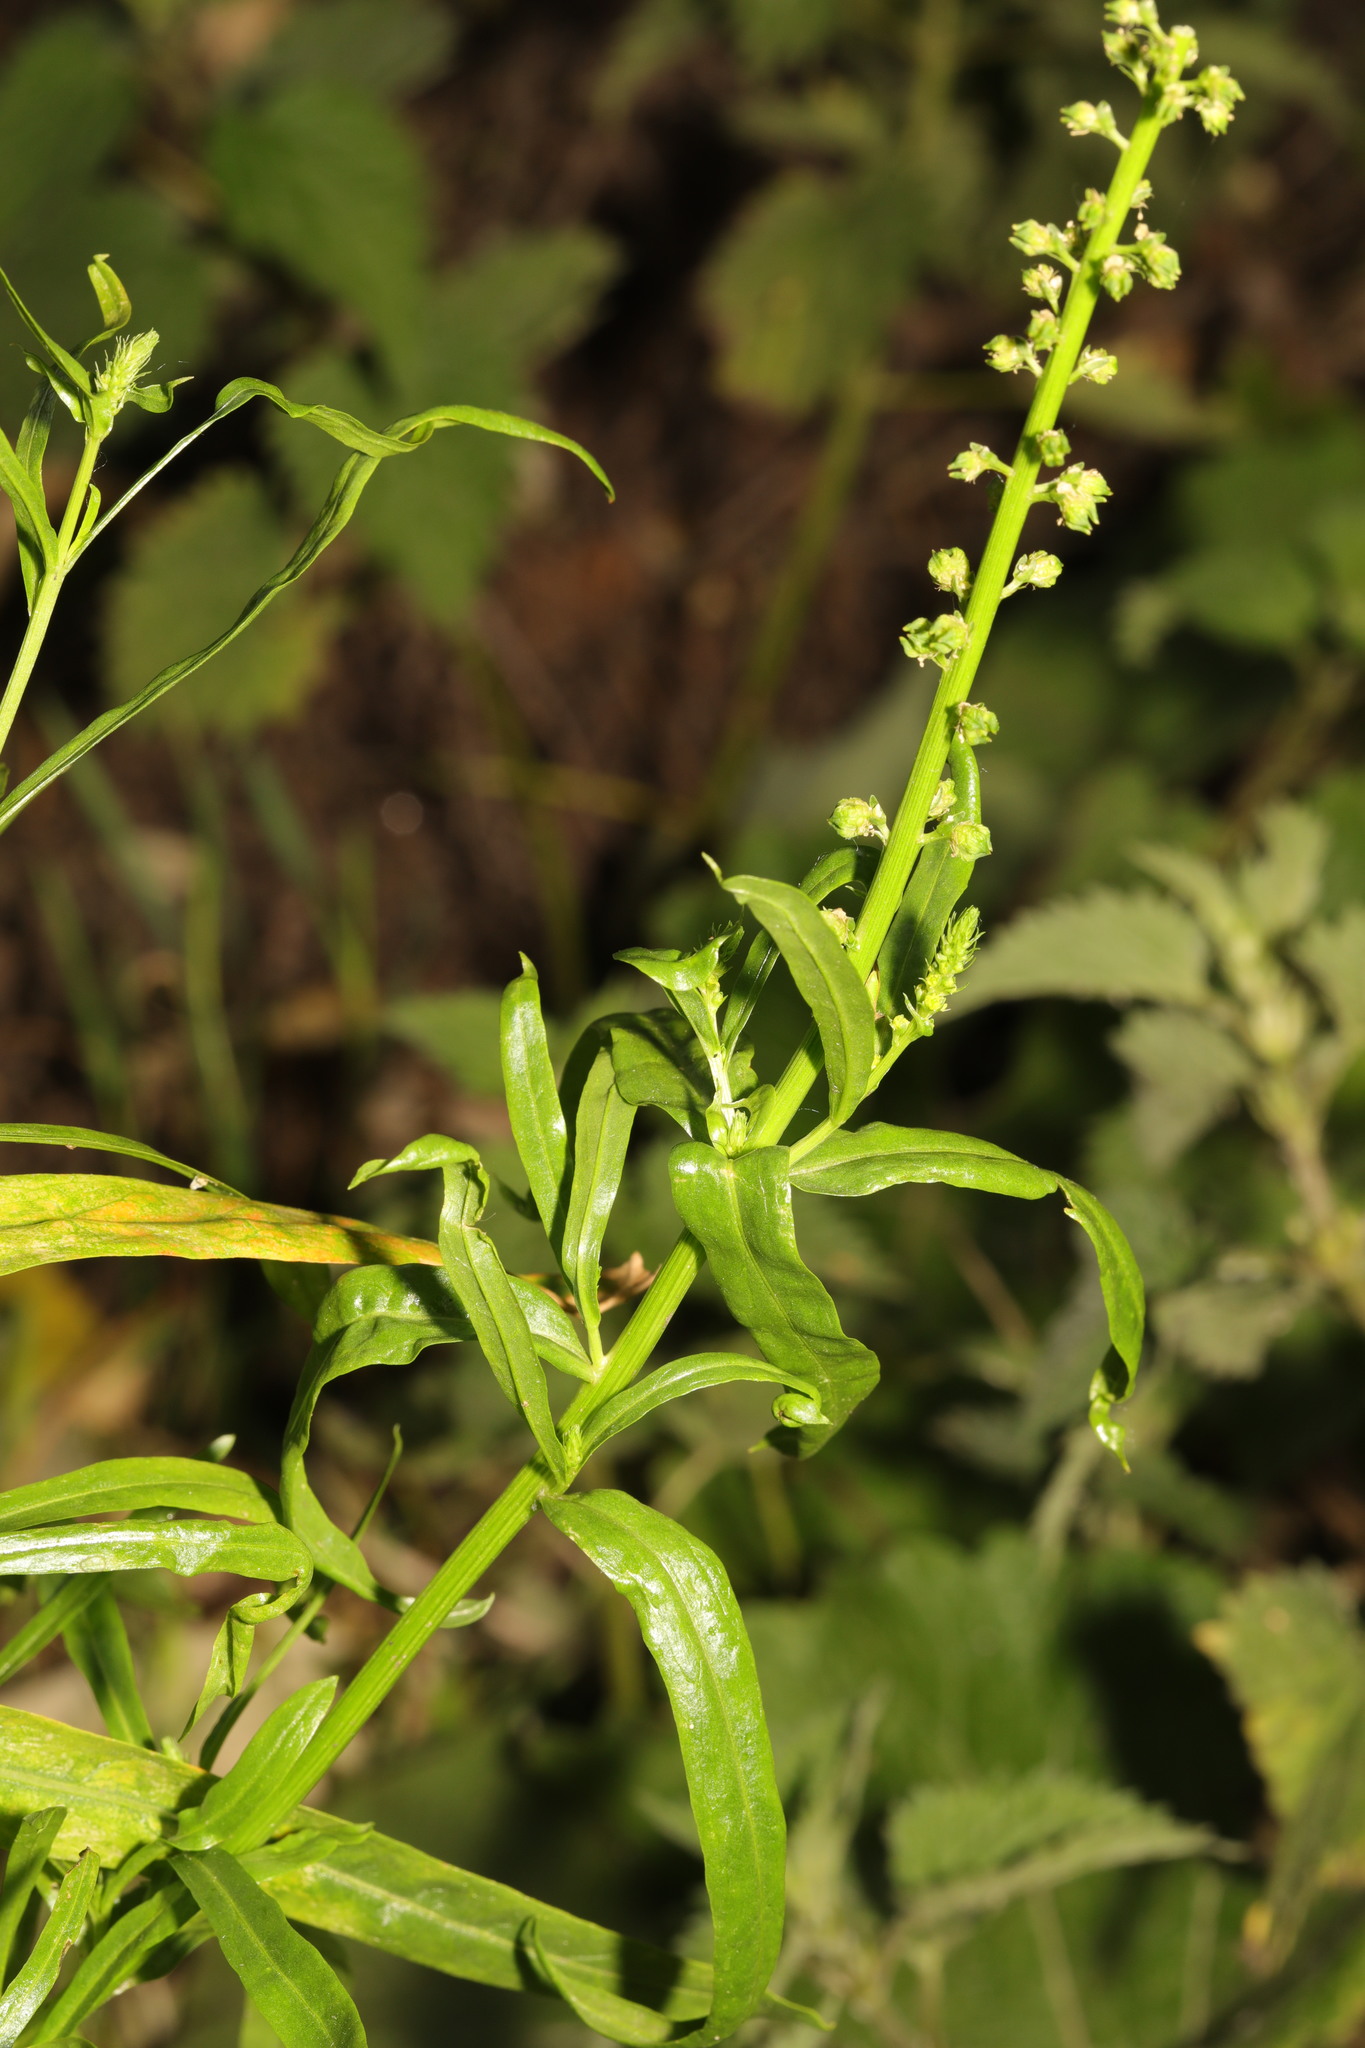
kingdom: Plantae
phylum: Tracheophyta
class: Magnoliopsida
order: Brassicales
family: Resedaceae
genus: Reseda
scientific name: Reseda luteola
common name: Weld
